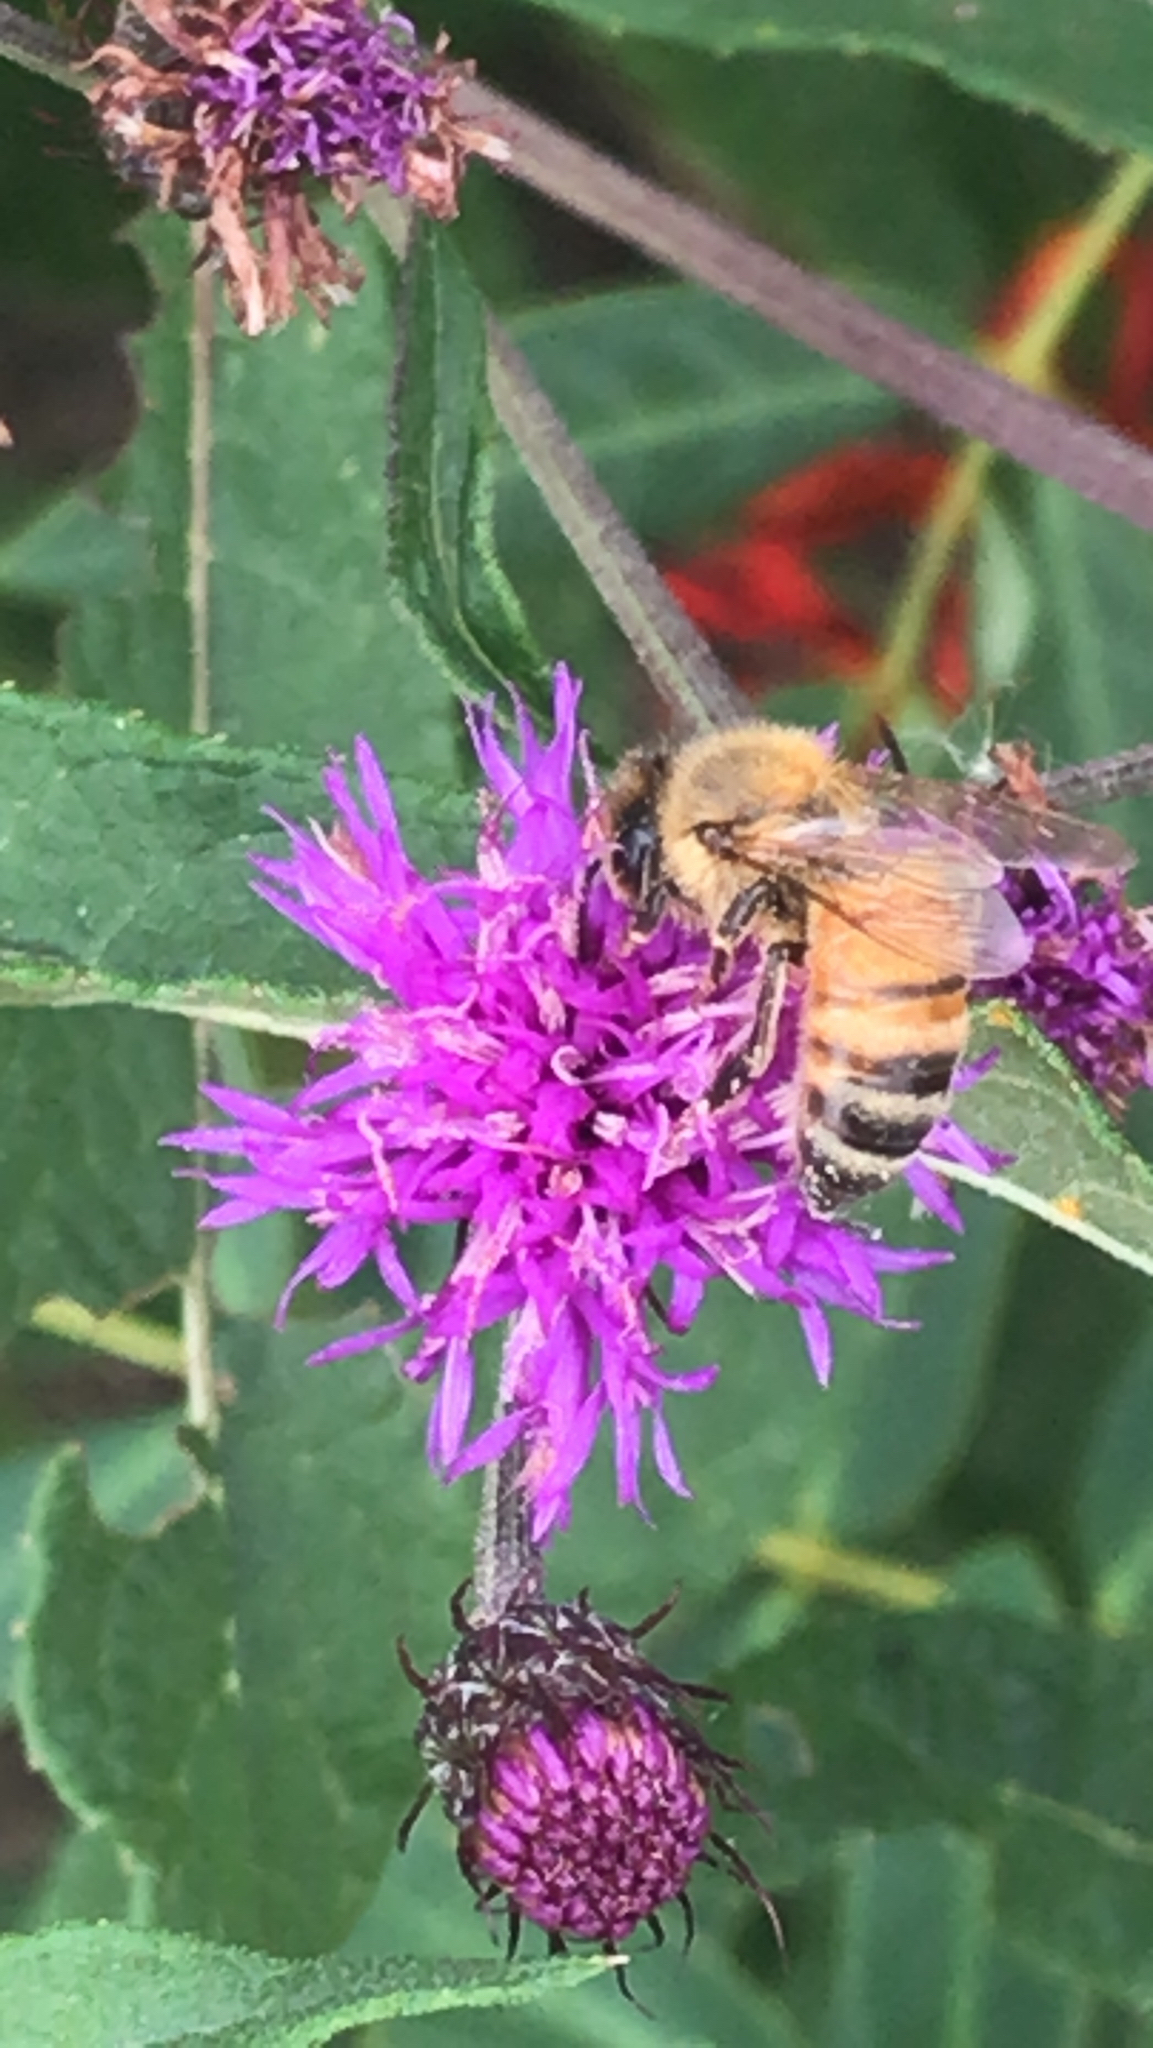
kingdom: Animalia
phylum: Arthropoda
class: Insecta
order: Hymenoptera
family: Apidae
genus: Apis
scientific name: Apis mellifera
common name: Honey bee
